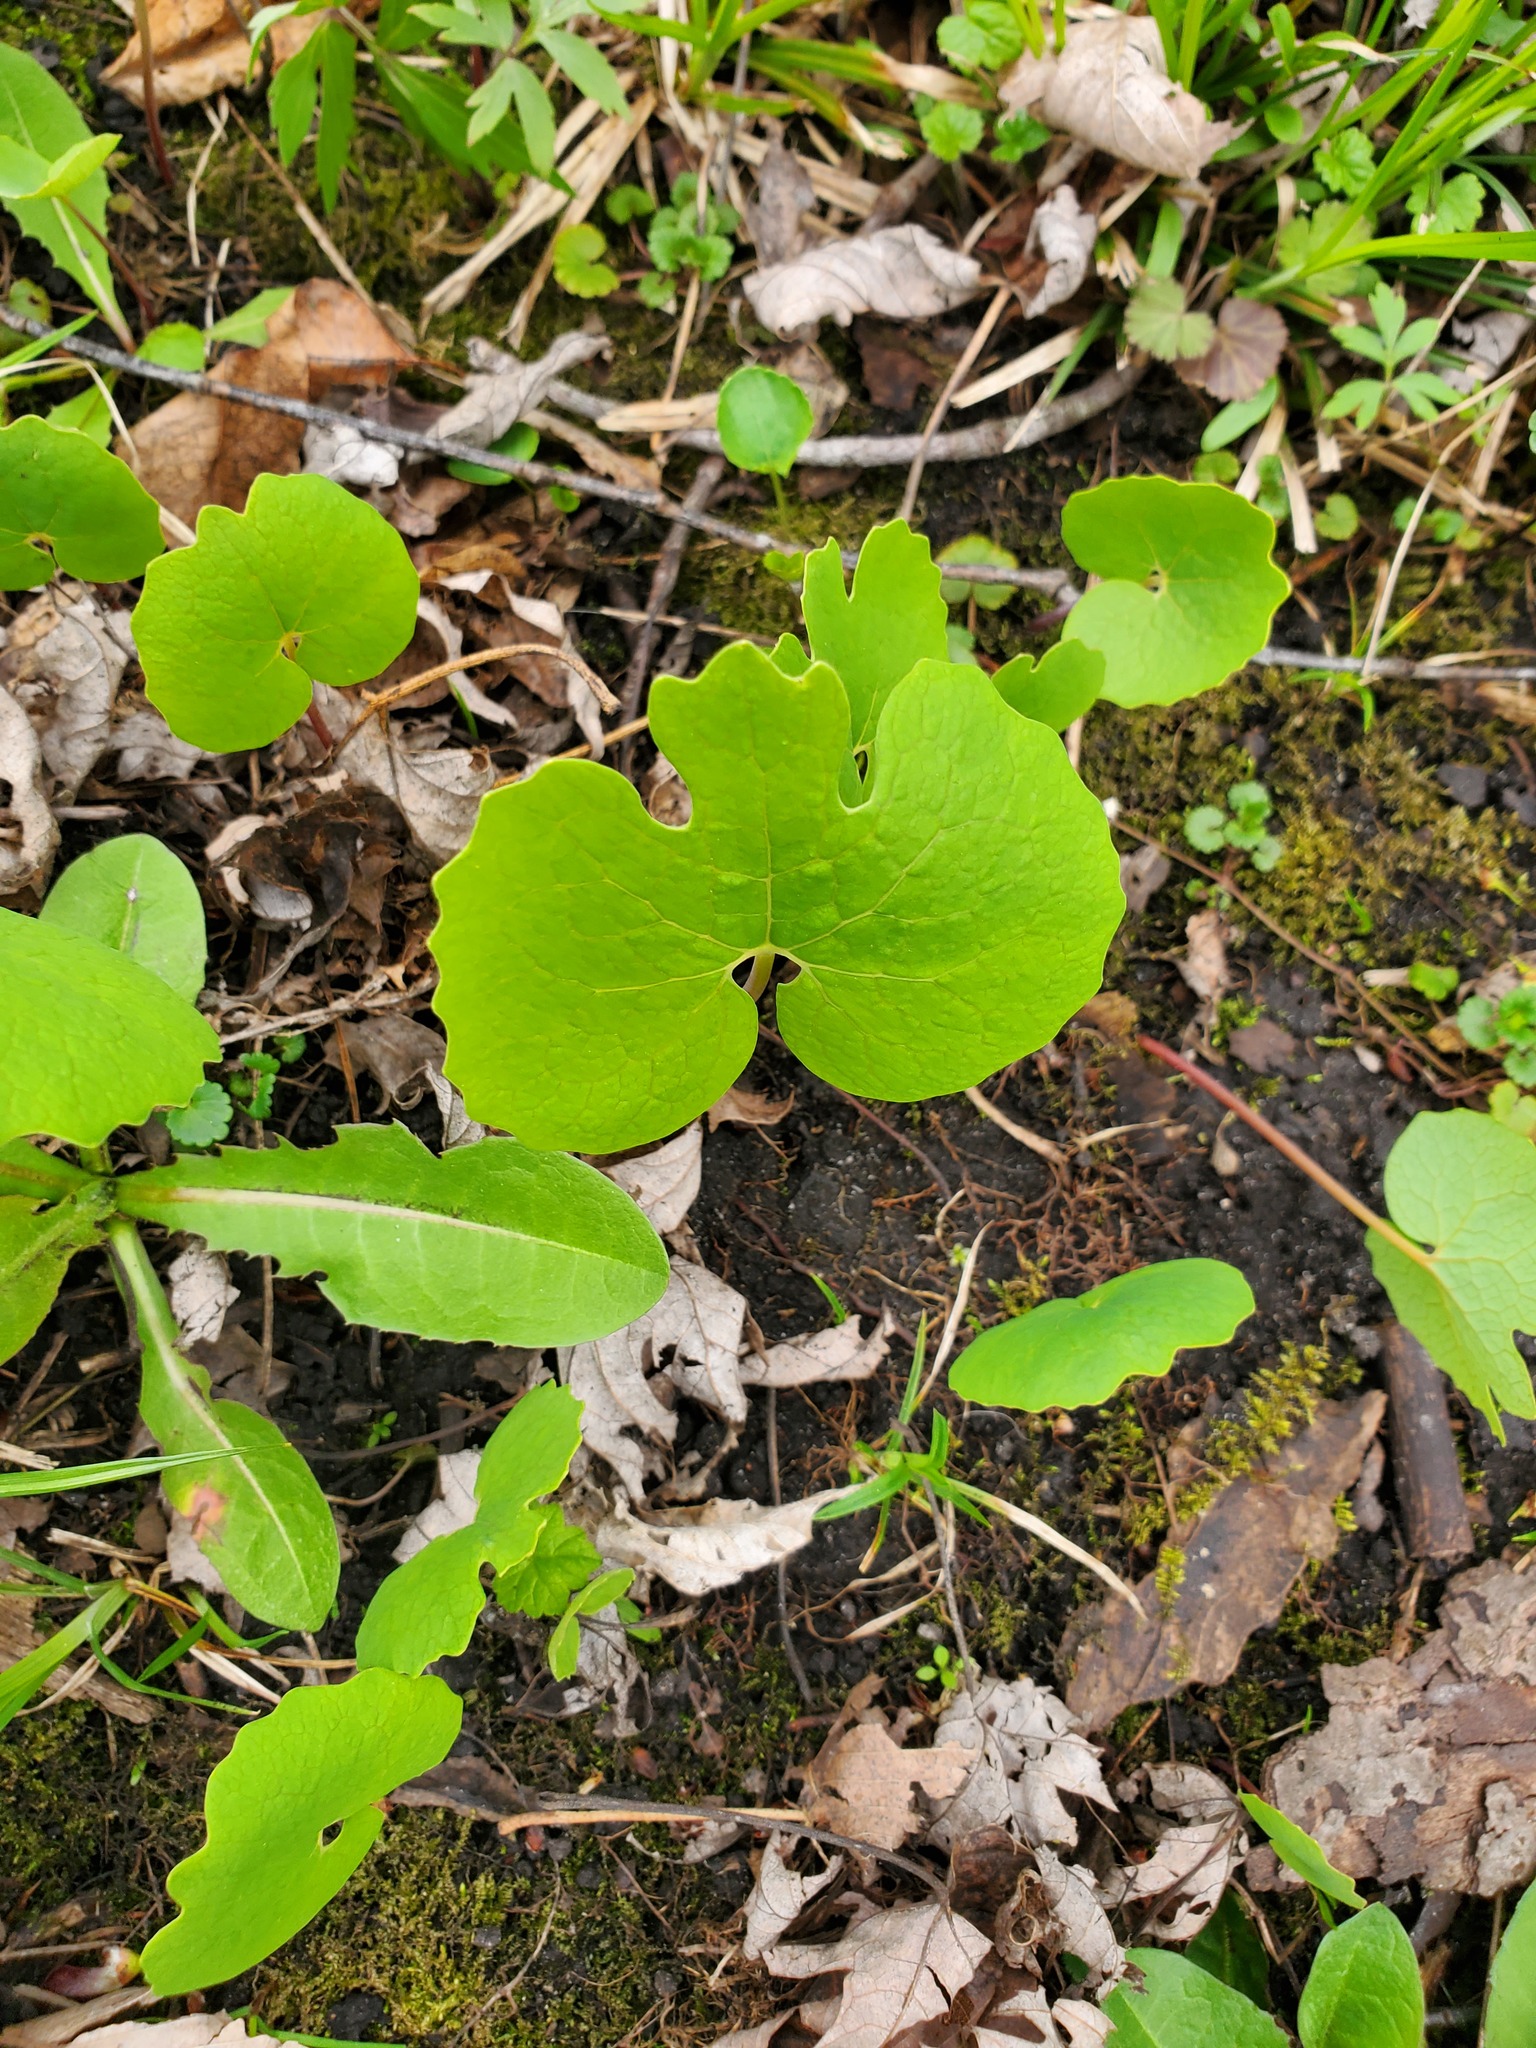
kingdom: Plantae
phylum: Tracheophyta
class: Magnoliopsida
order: Ranunculales
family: Papaveraceae
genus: Sanguinaria
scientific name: Sanguinaria canadensis
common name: Bloodroot
